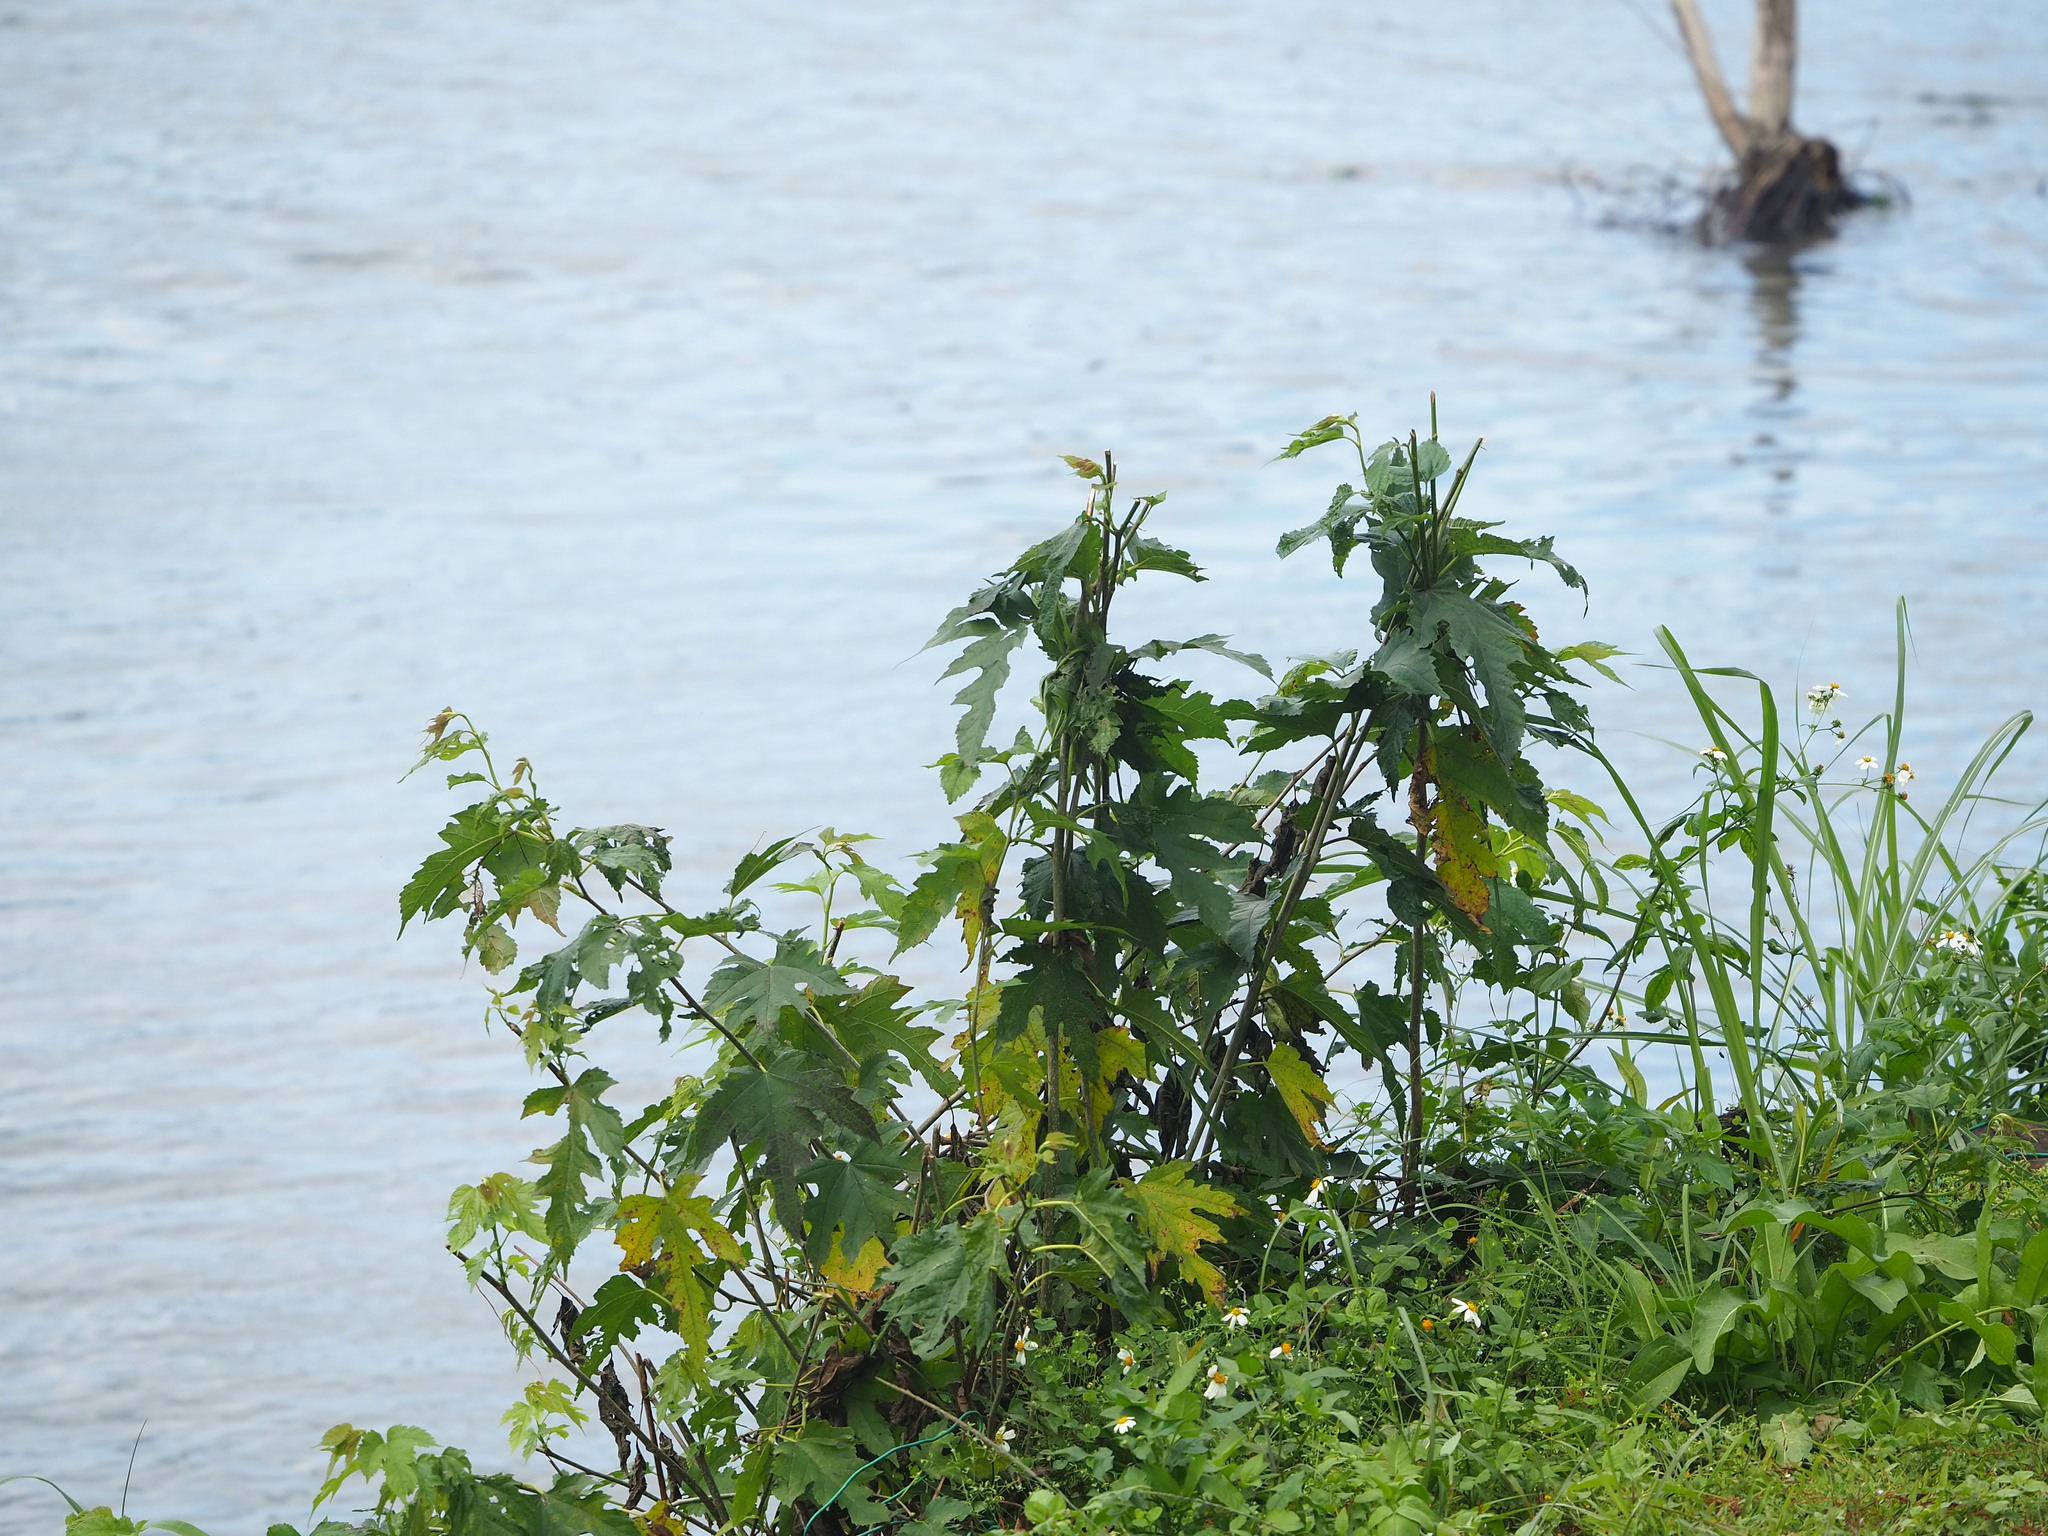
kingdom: Plantae
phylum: Tracheophyta
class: Magnoliopsida
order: Rosales
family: Moraceae
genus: Morus
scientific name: Morus indica
